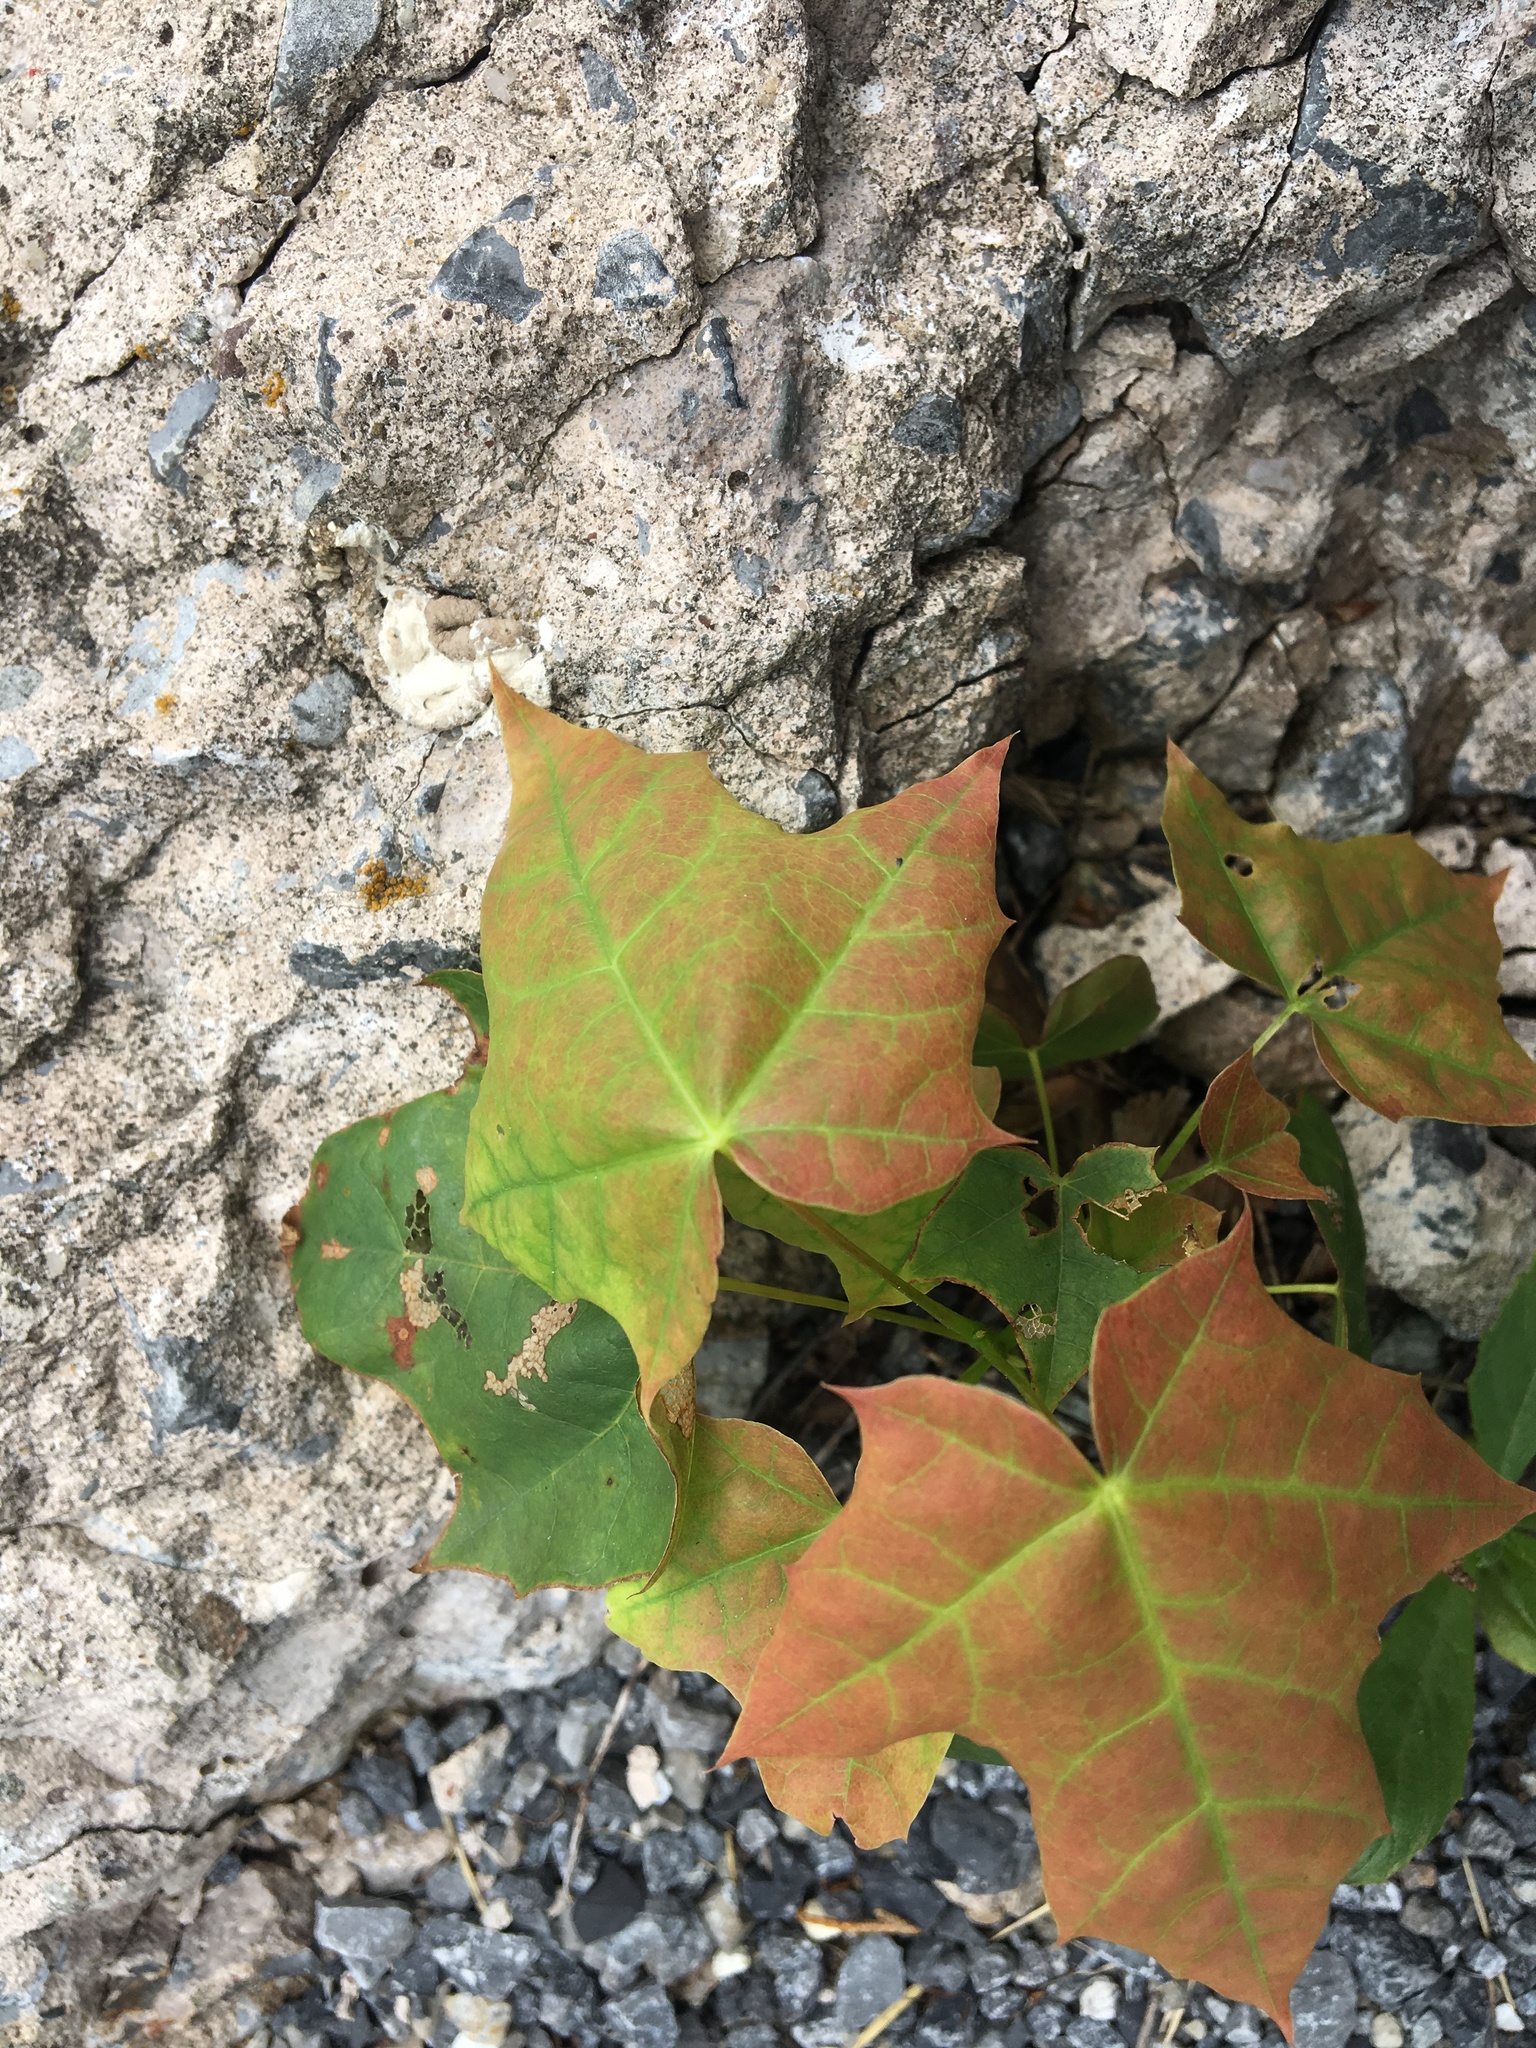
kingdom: Plantae
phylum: Tracheophyta
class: Magnoliopsida
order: Sapindales
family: Sapindaceae
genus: Acer
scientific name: Acer platanoides
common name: Norway maple
